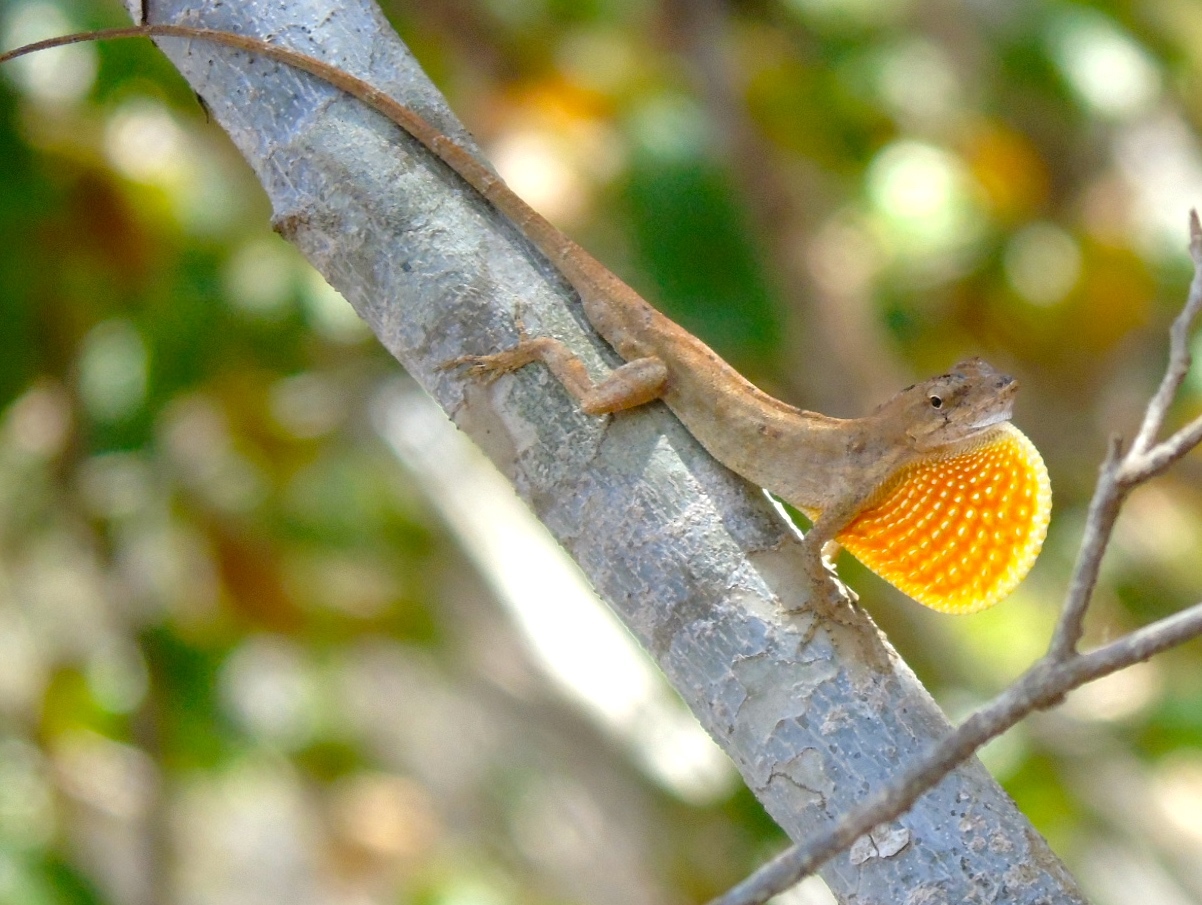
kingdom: Animalia
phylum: Chordata
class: Squamata
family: Dactyloidae
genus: Anolis
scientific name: Anolis nebulosus
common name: Clouded anole
